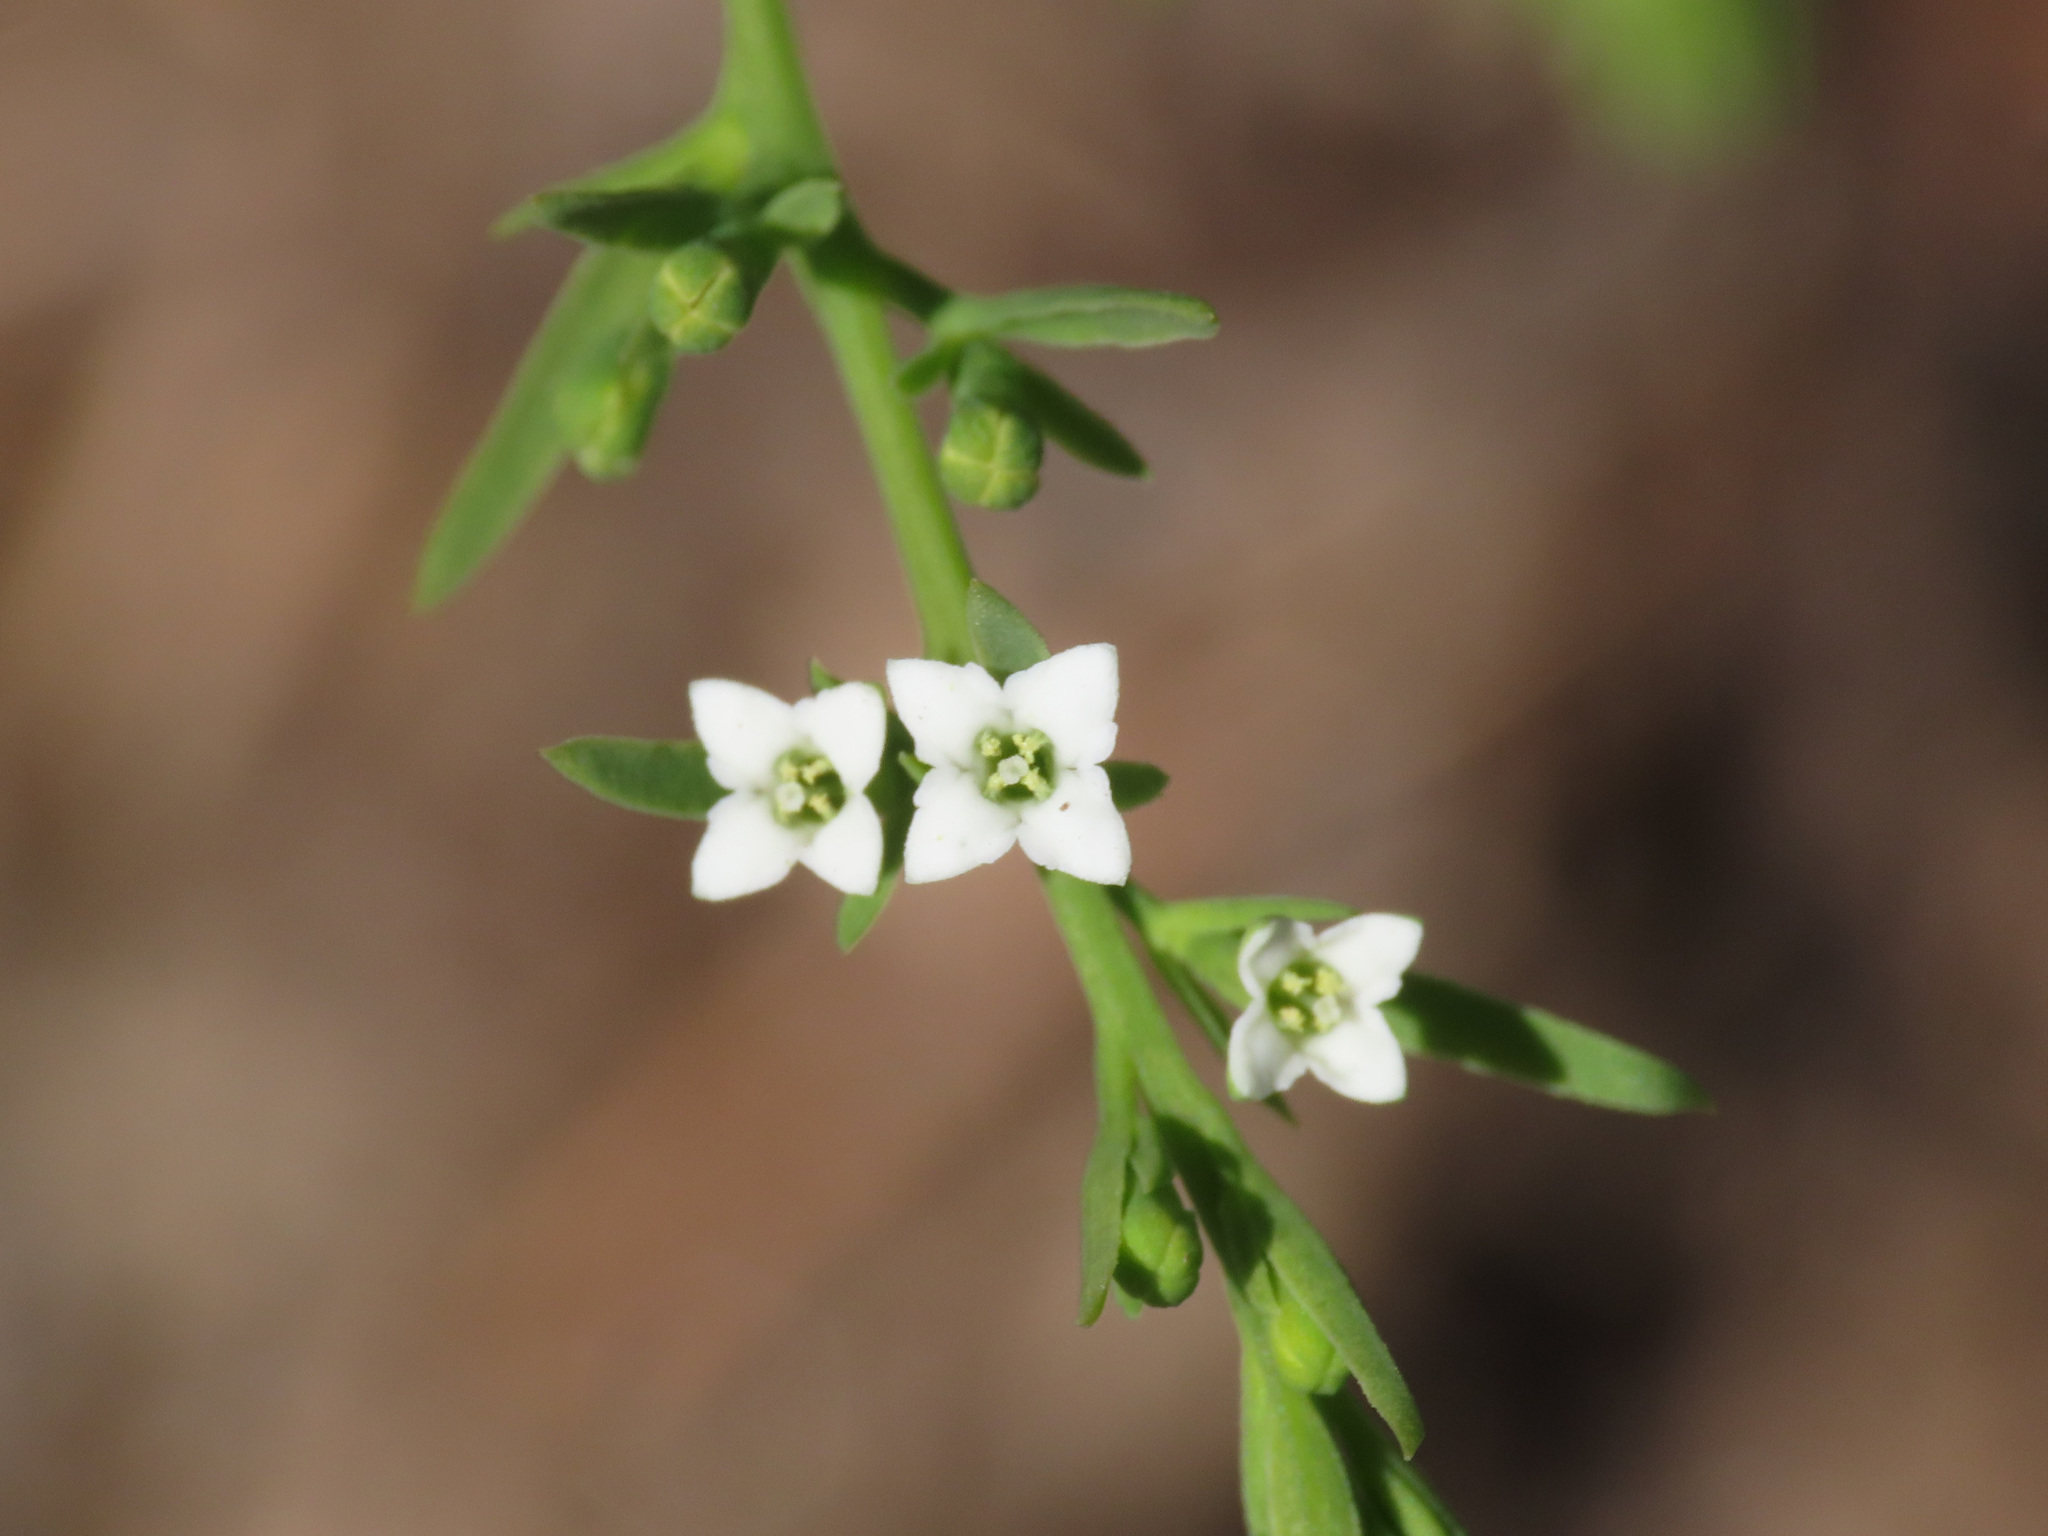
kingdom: Plantae
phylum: Tracheophyta
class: Magnoliopsida
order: Santalales
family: Thesiaceae
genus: Thesium
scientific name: Thesium alpinum
